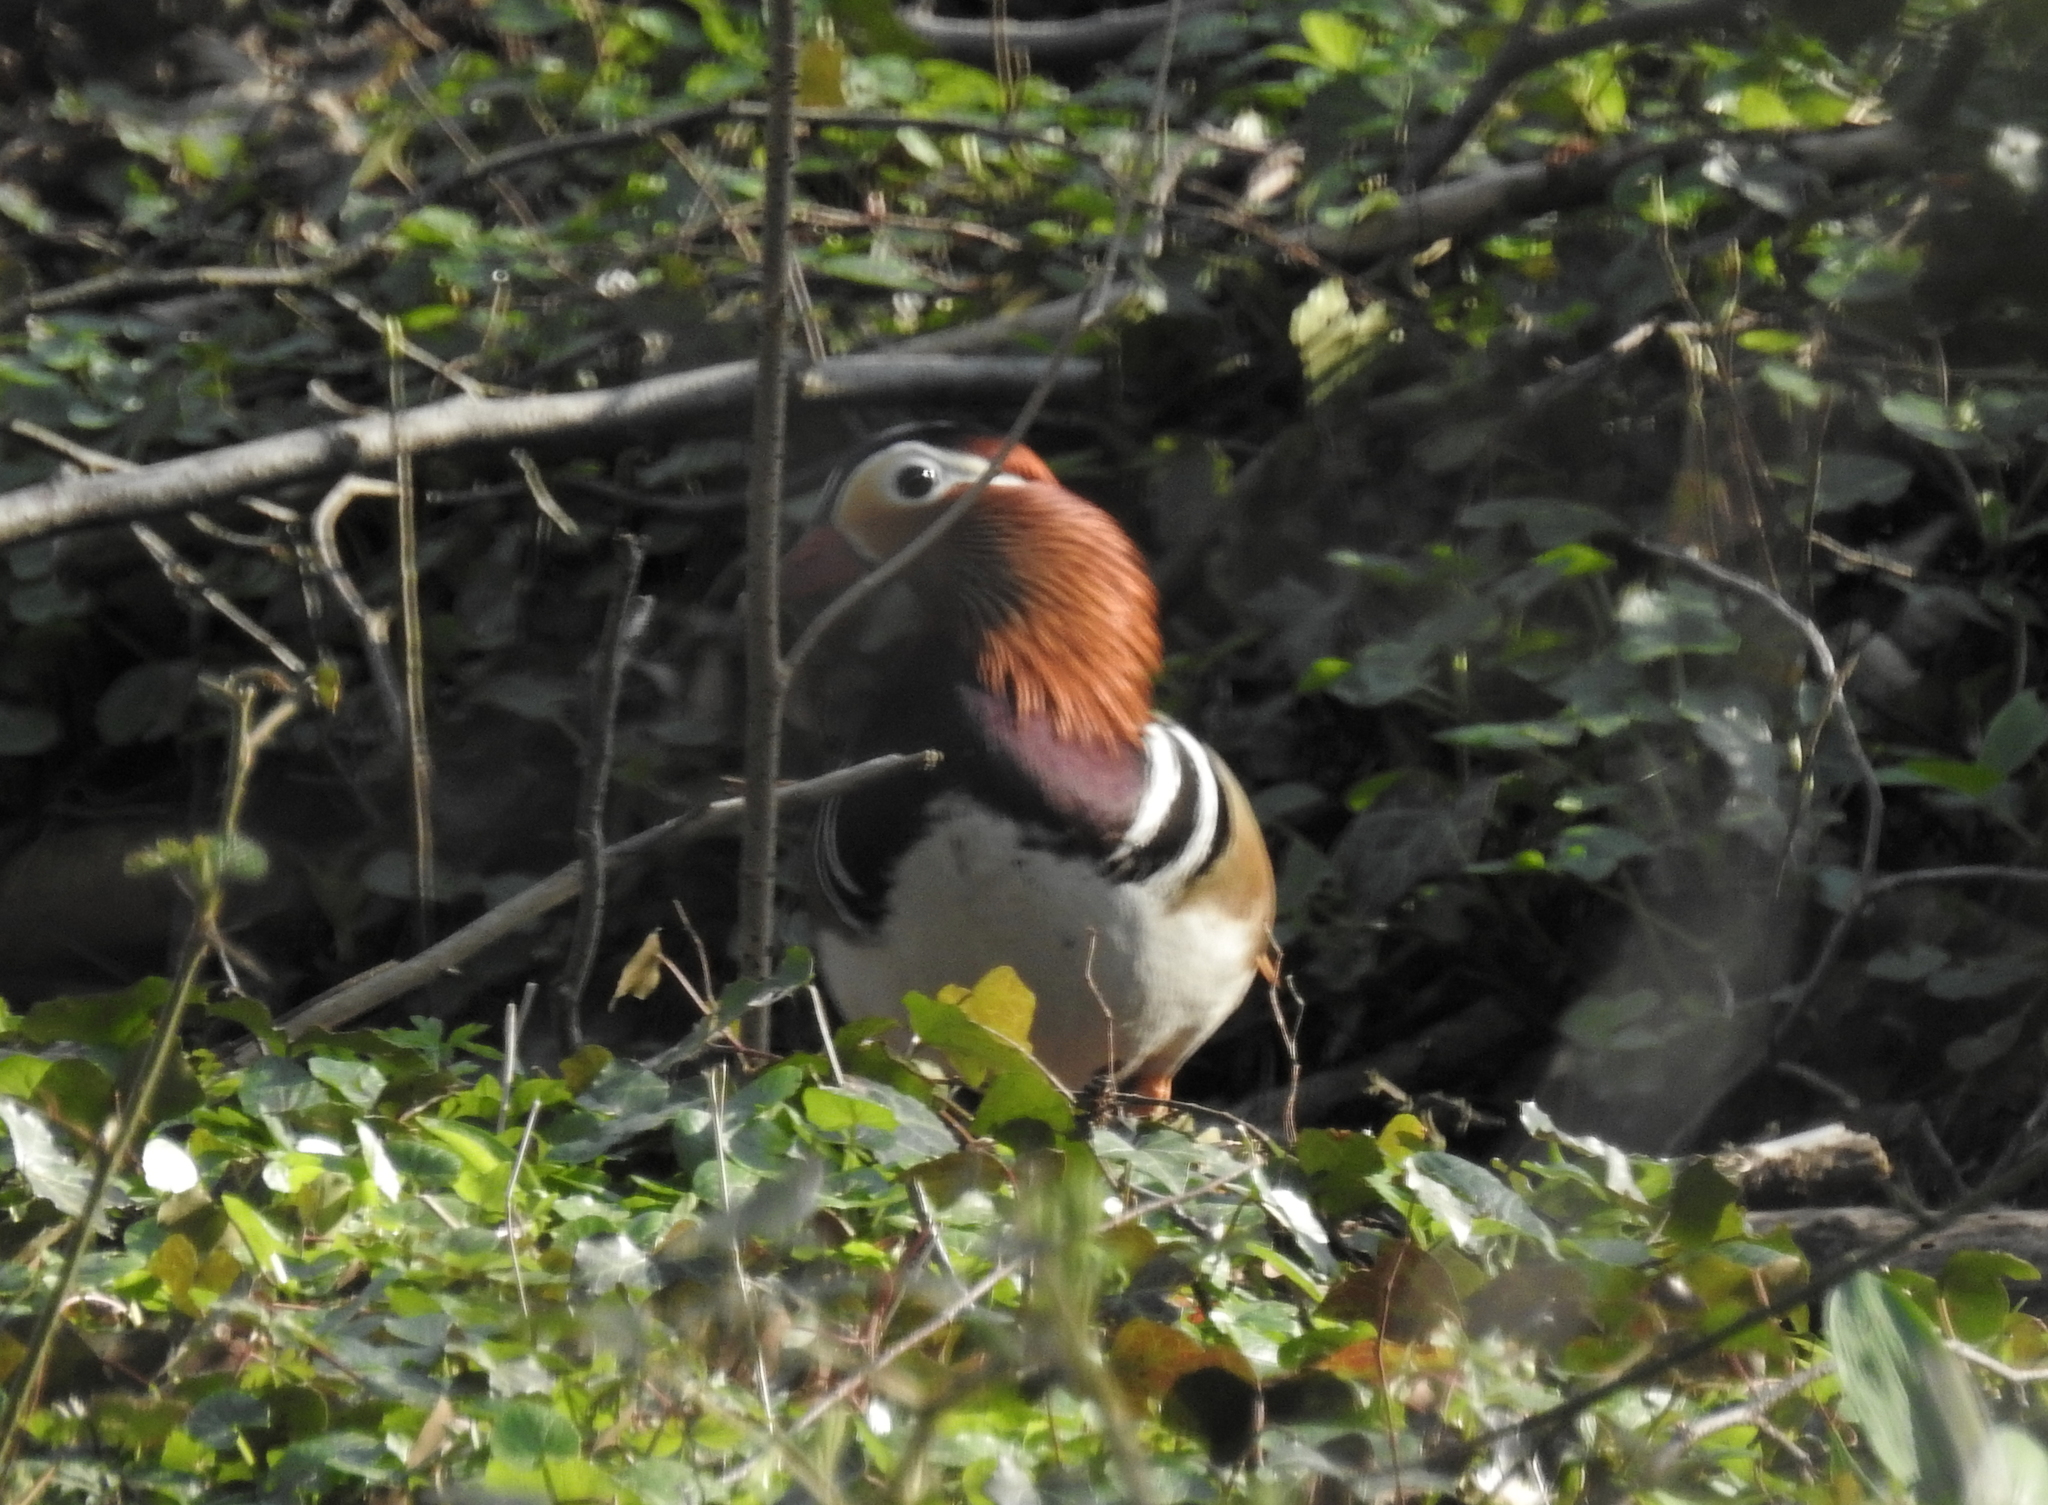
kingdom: Animalia
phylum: Chordata
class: Aves
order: Anseriformes
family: Anatidae
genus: Aix
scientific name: Aix galericulata
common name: Mandarin duck
